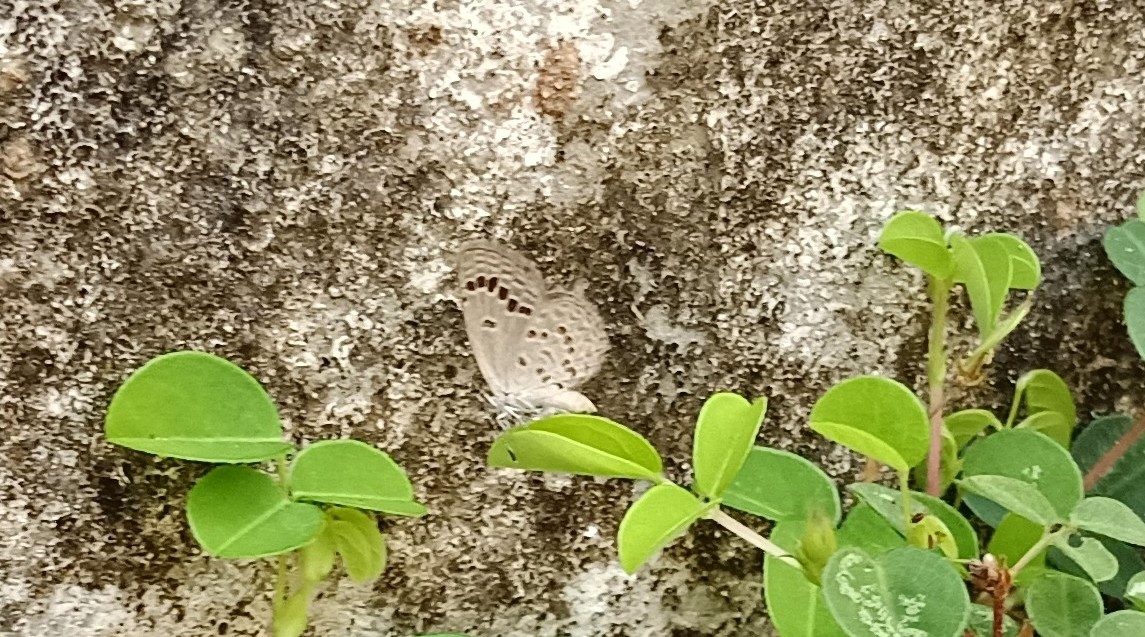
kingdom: Animalia
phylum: Arthropoda
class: Insecta
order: Lepidoptera
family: Lycaenidae
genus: Zizina
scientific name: Zizina otis
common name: Lesser grass blue
